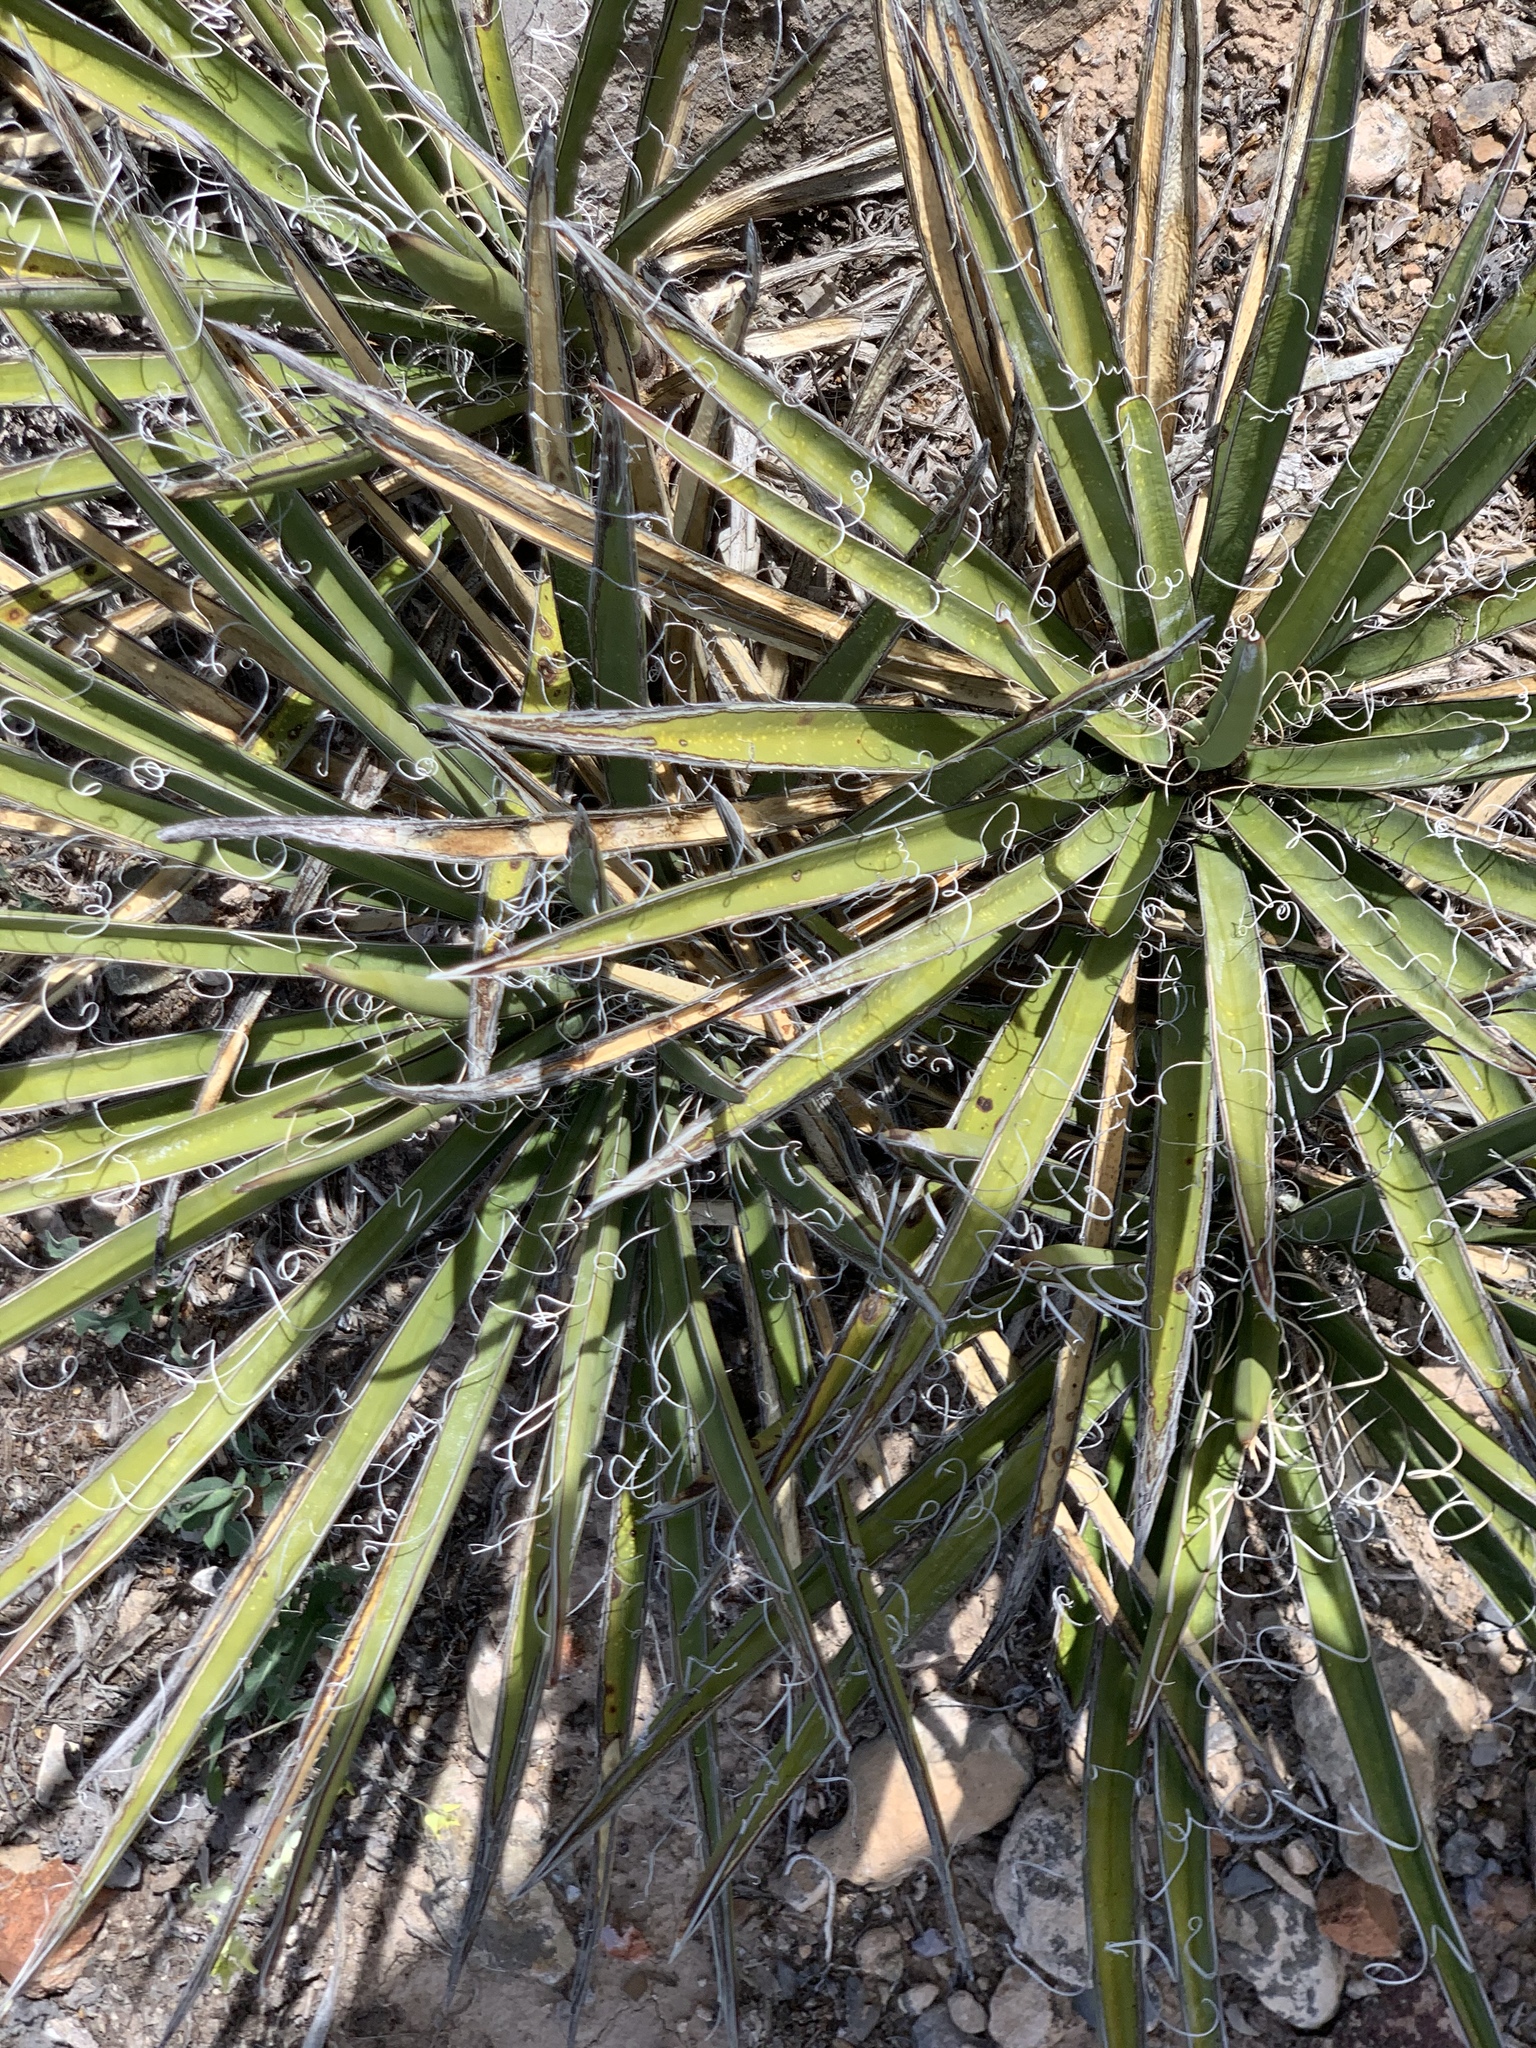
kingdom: Plantae
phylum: Tracheophyta
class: Liliopsida
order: Asparagales
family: Asparagaceae
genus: Yucca
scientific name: Yucca baccata
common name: Banana yucca
